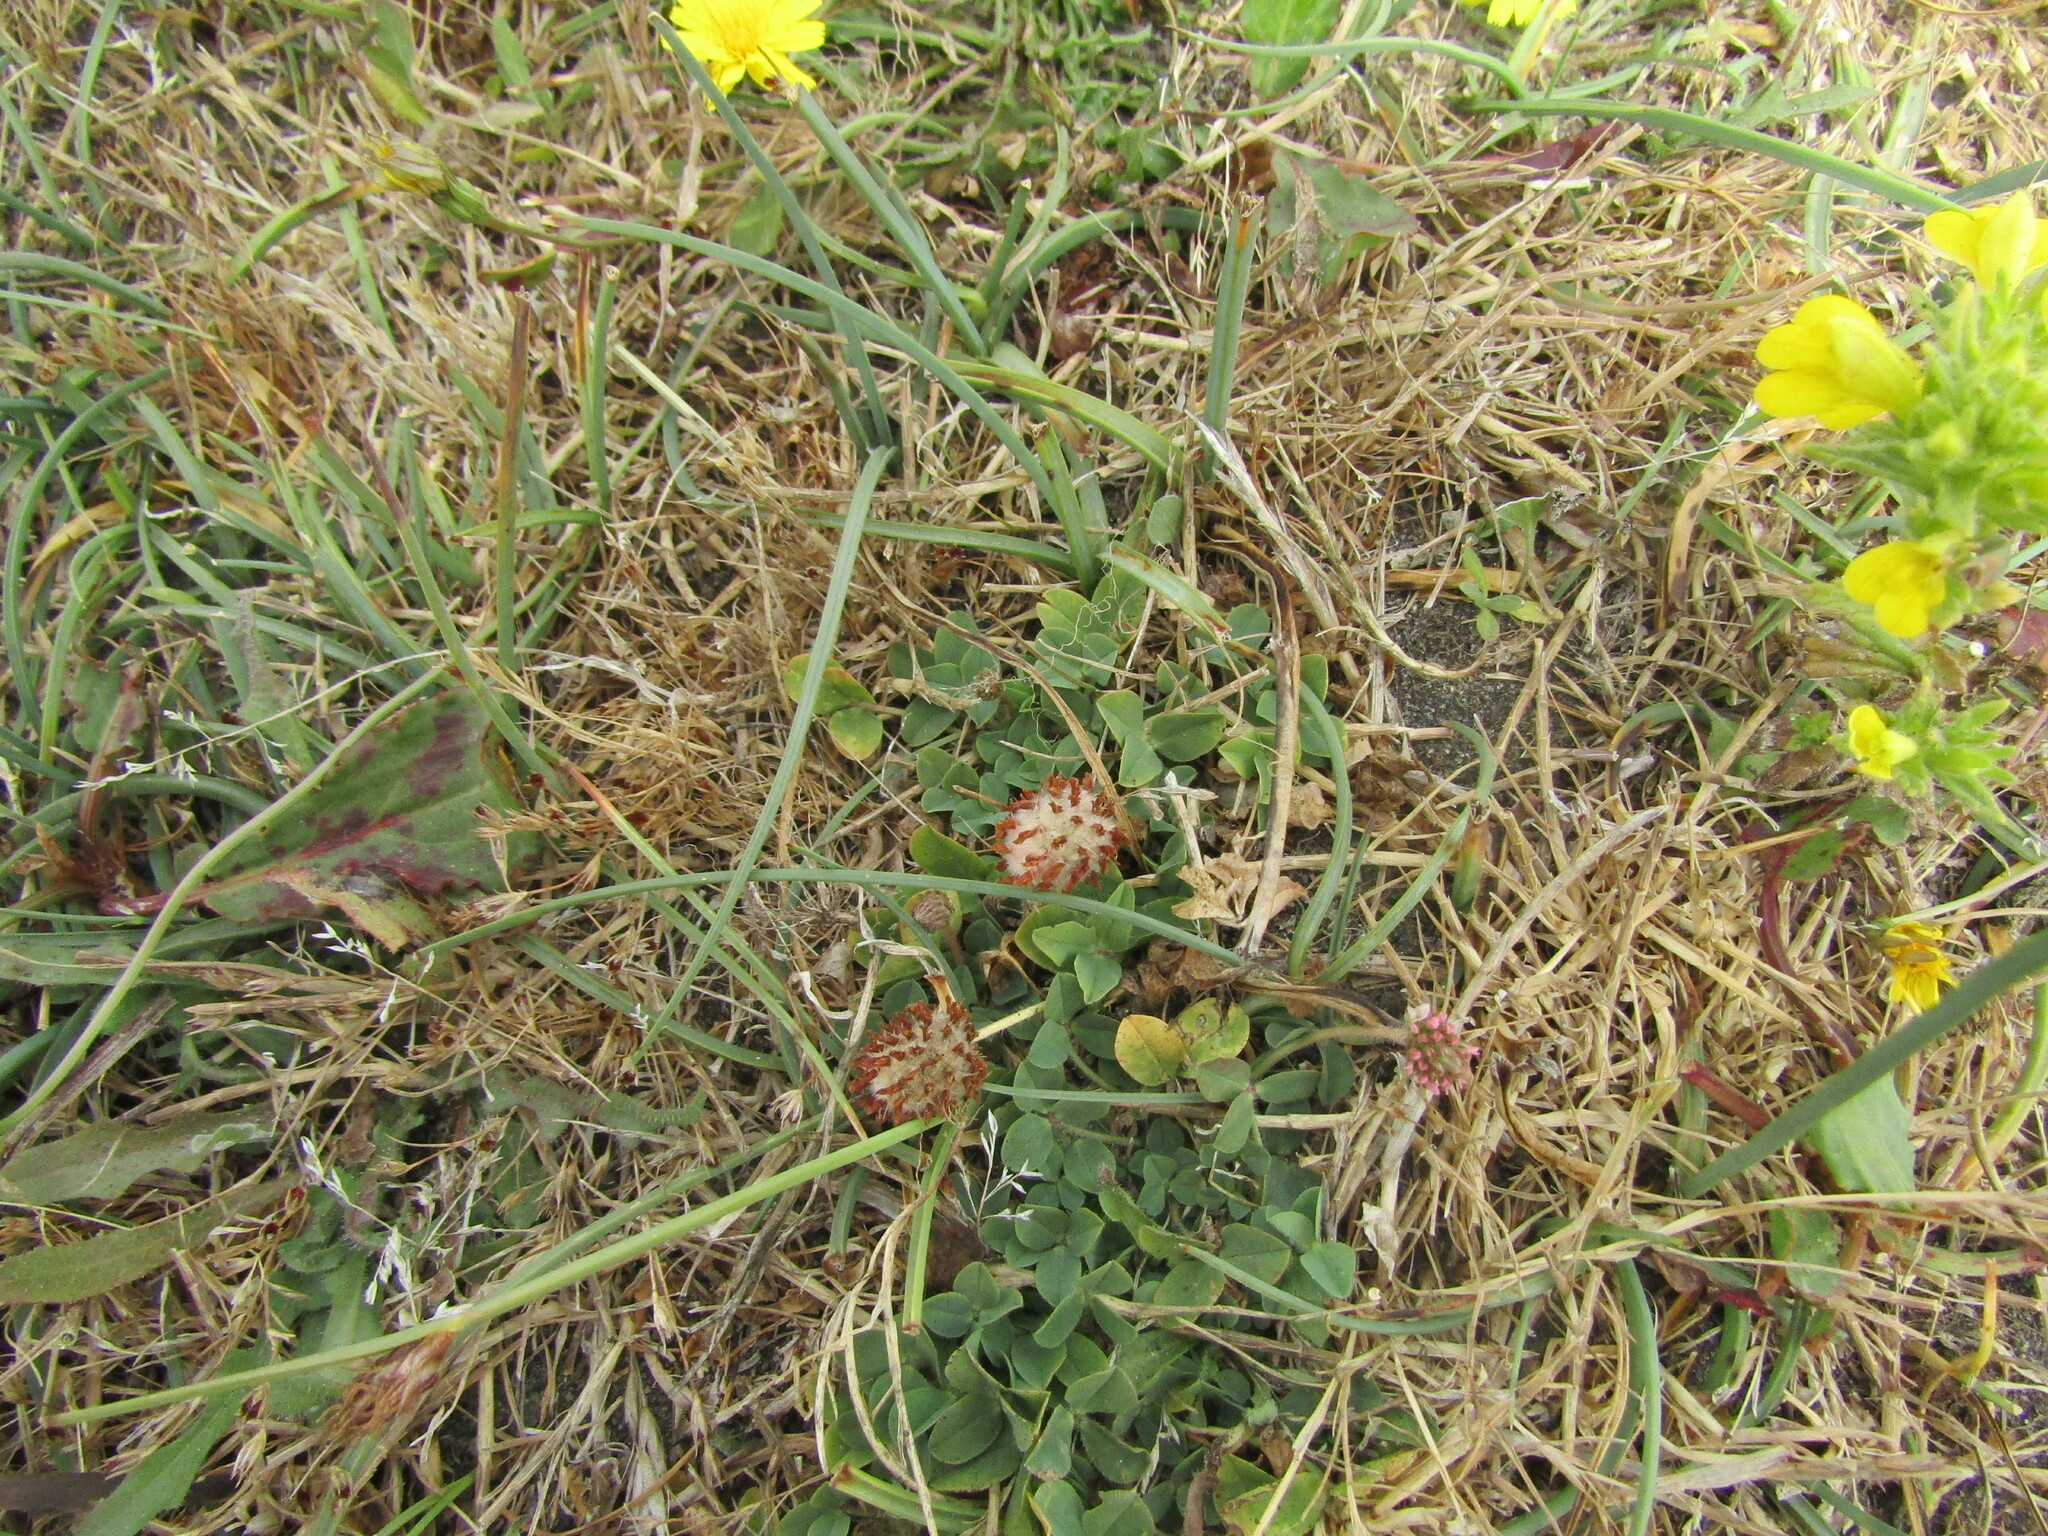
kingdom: Plantae
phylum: Tracheophyta
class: Magnoliopsida
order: Fabales
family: Fabaceae
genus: Trifolium
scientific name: Trifolium fragiferum
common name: Strawberry clover
